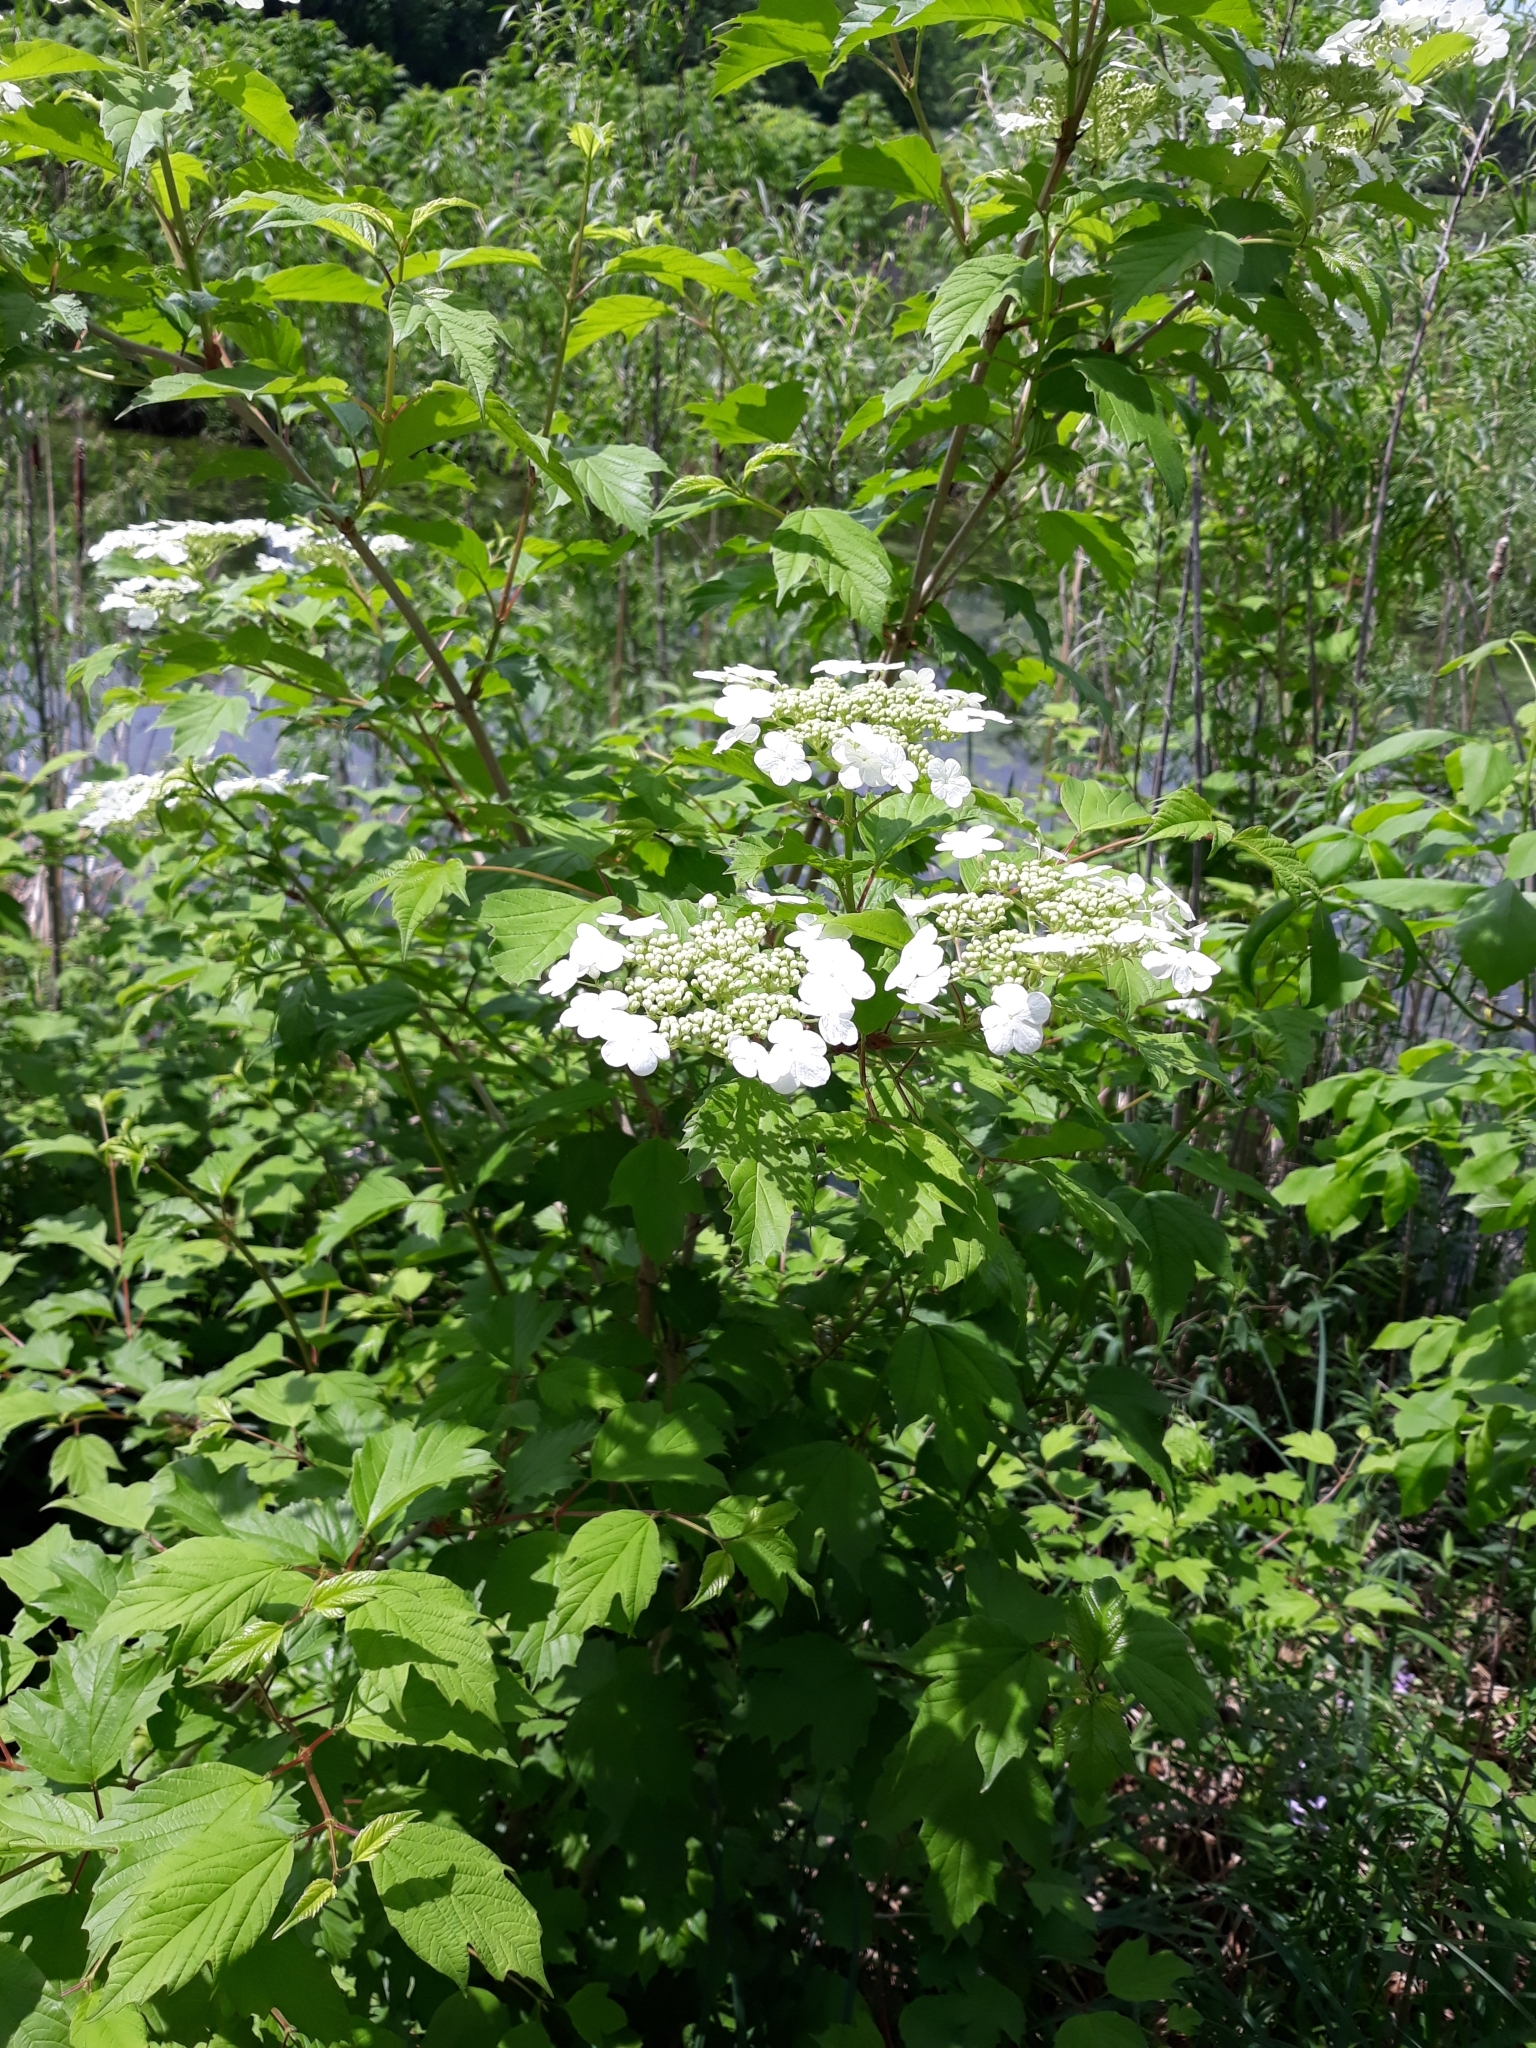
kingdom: Plantae
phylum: Tracheophyta
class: Magnoliopsida
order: Dipsacales
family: Viburnaceae
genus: Viburnum
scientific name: Viburnum opulus
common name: Guelder-rose
